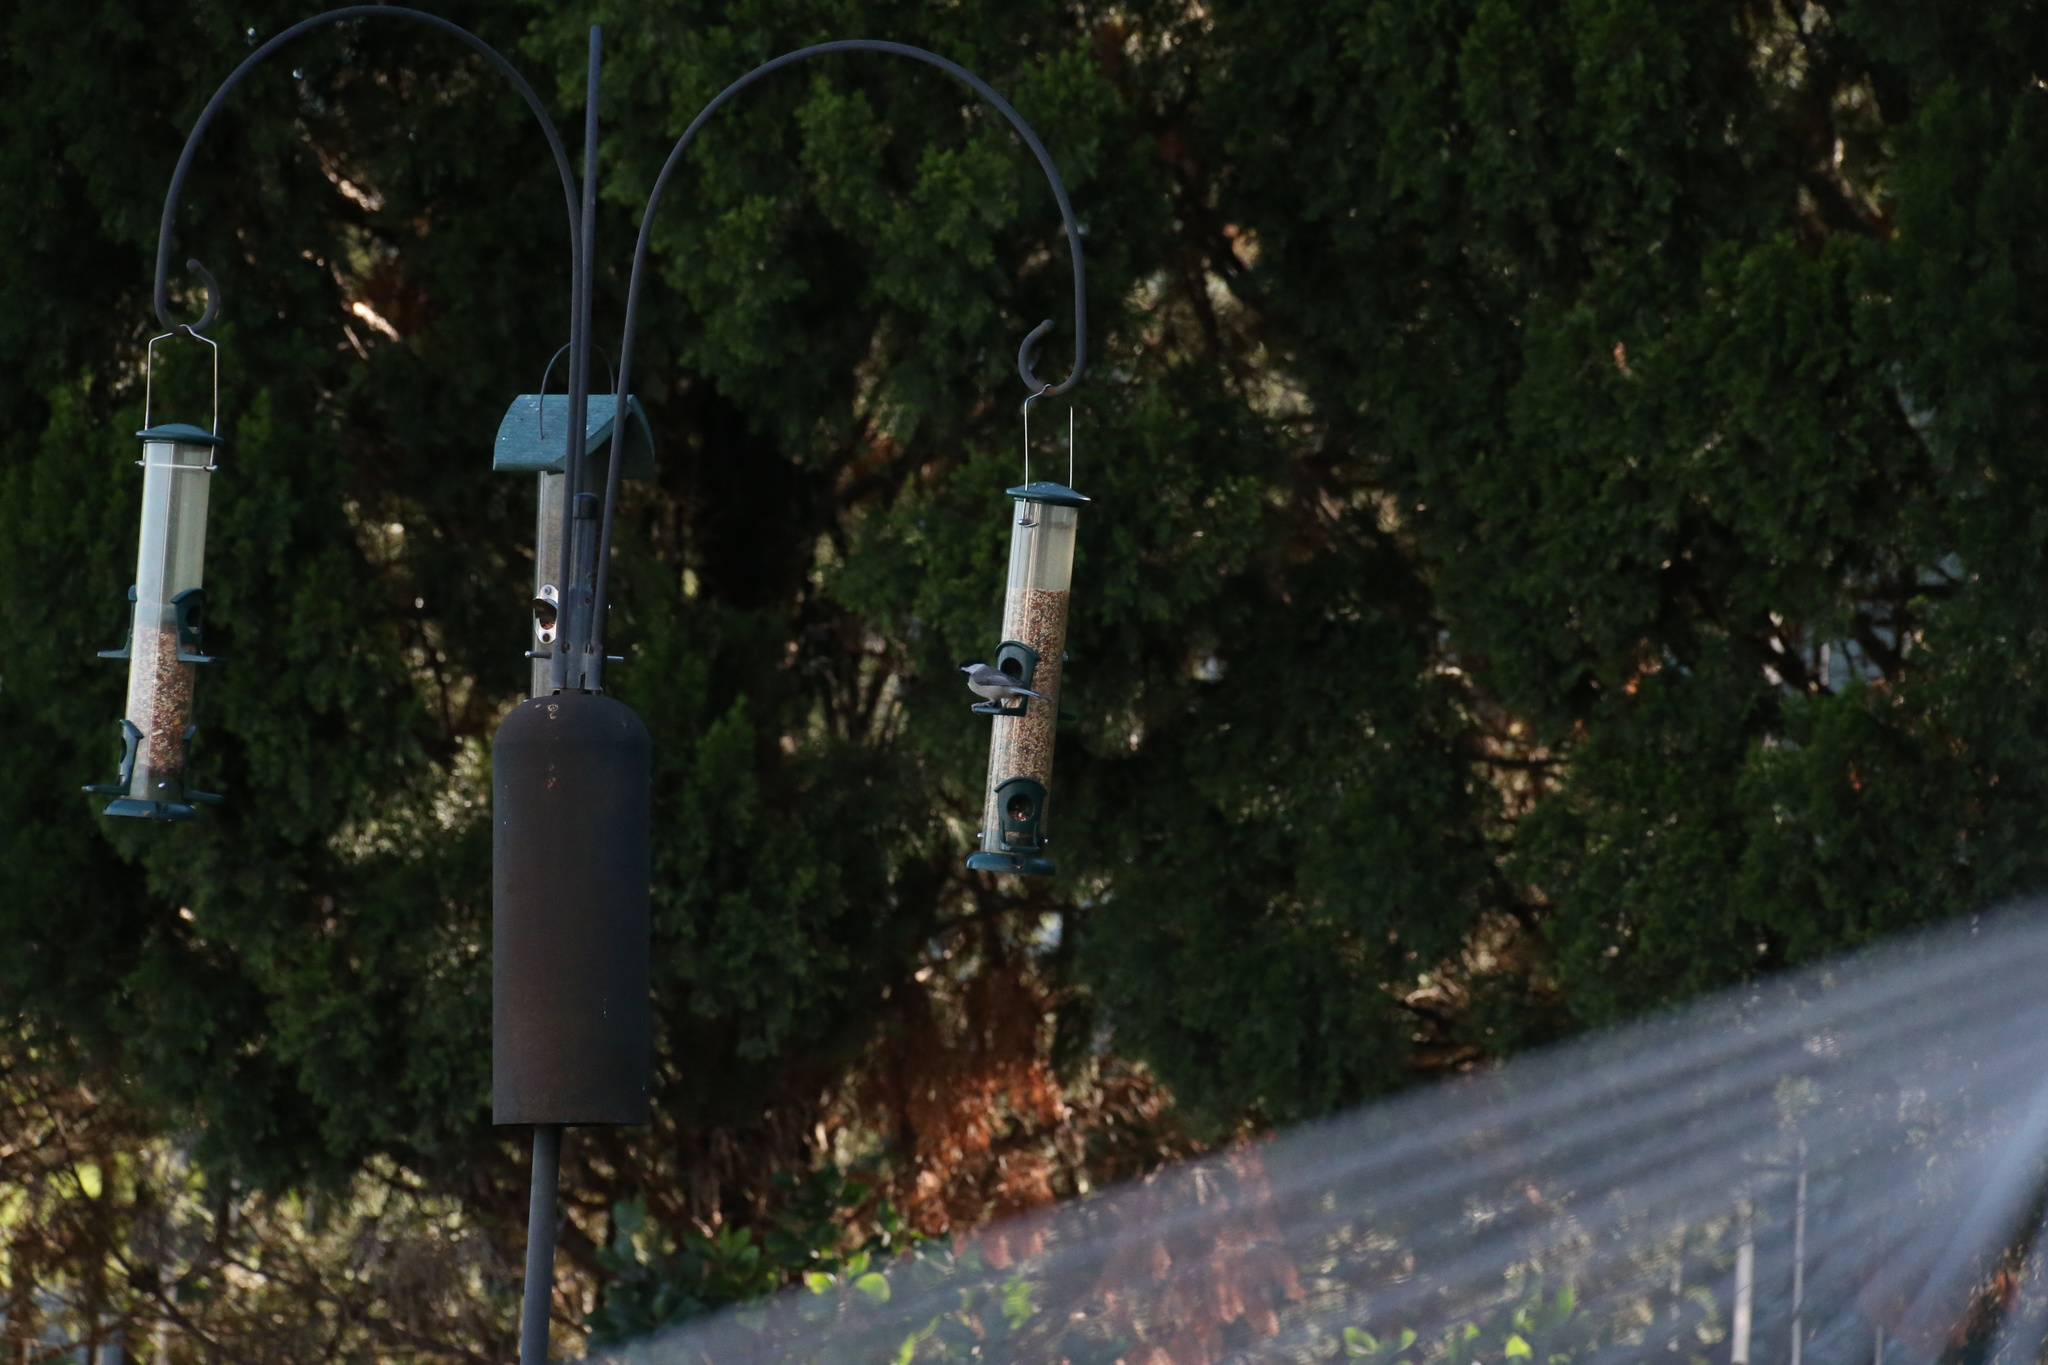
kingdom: Animalia
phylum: Chordata
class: Aves
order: Passeriformes
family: Paridae
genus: Poecile
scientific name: Poecile carolinensis
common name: Carolina chickadee
